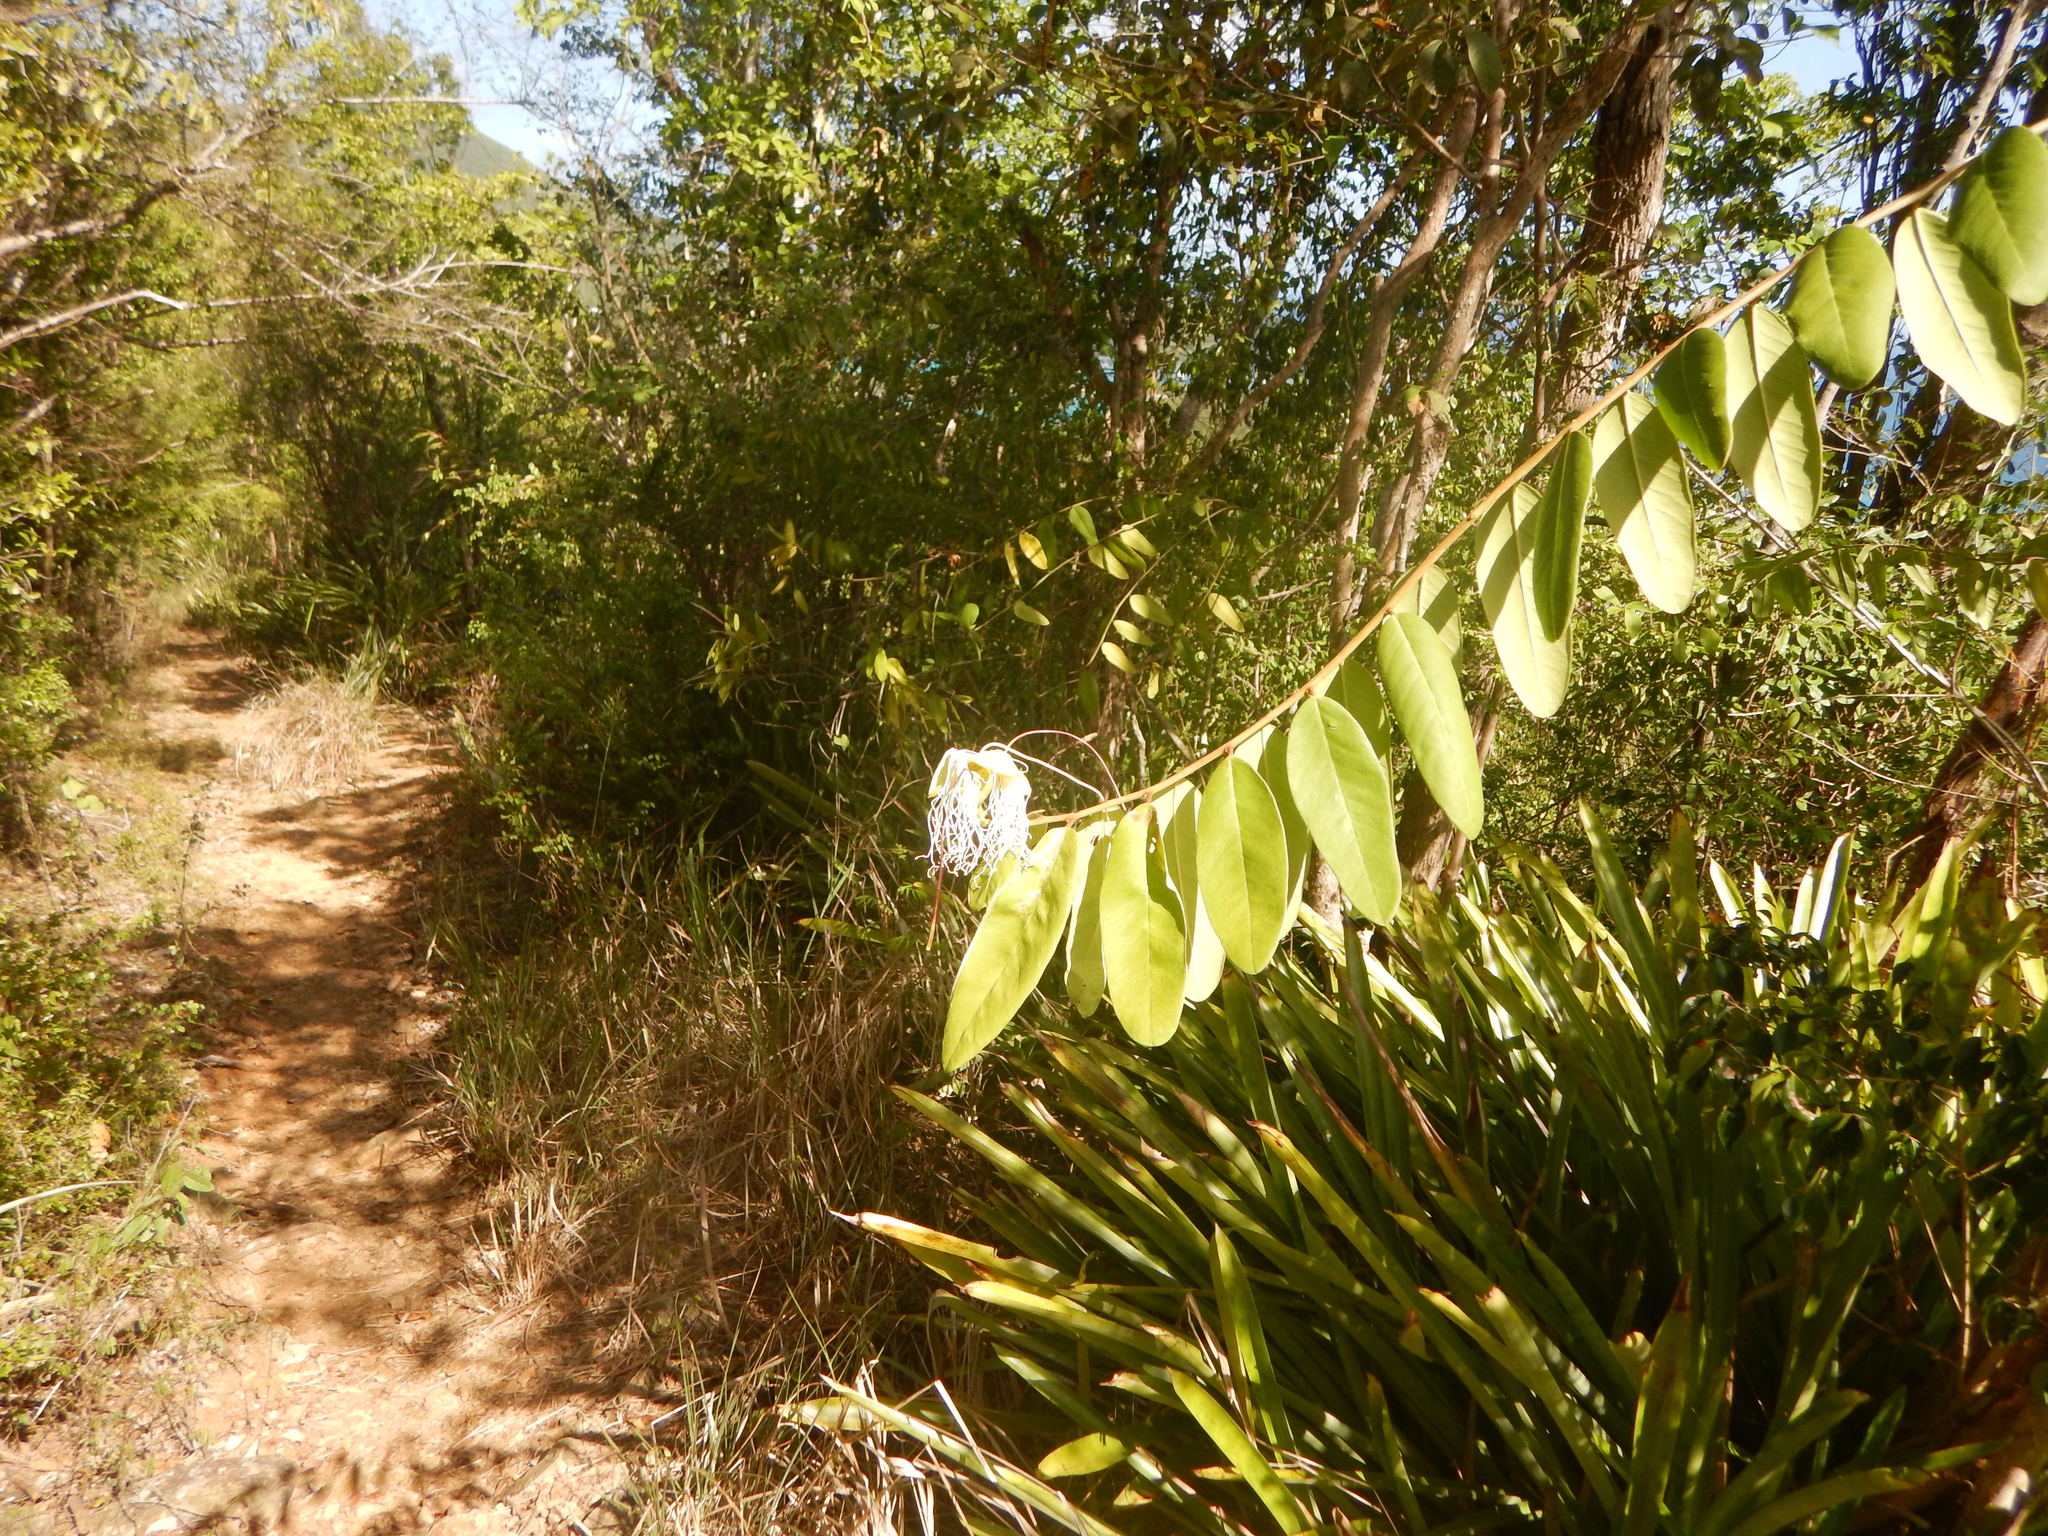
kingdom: Plantae
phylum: Tracheophyta
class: Magnoliopsida
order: Brassicales
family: Capparaceae
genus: Cynophalla
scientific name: Cynophalla flexuosa
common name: Capertree
